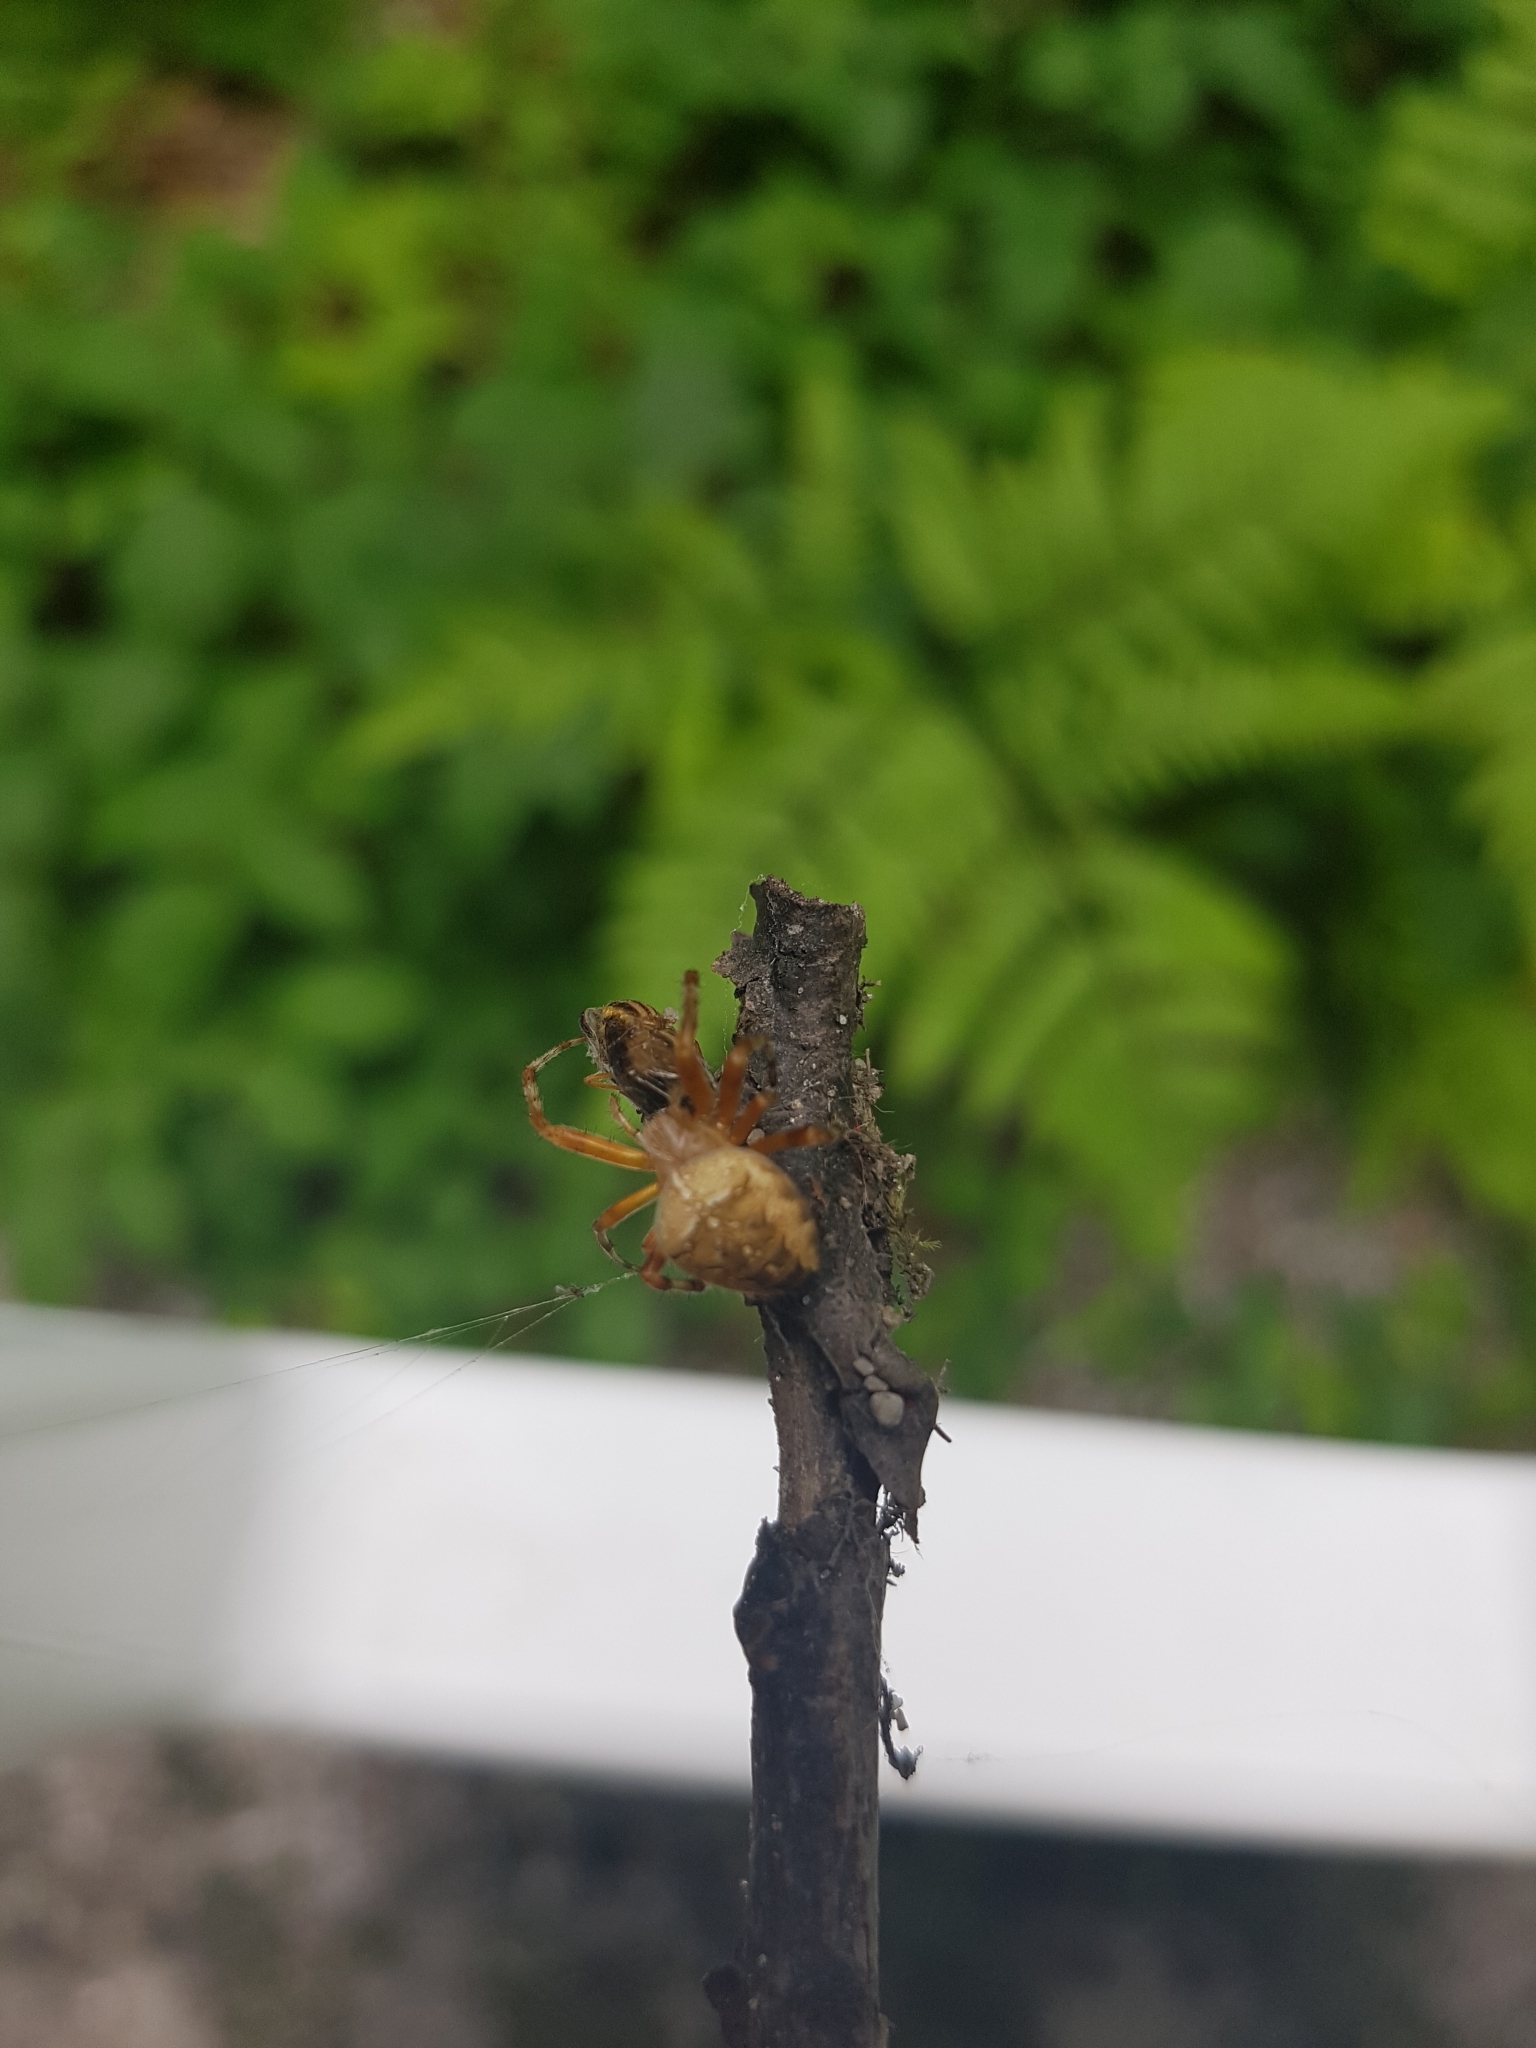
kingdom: Animalia
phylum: Arthropoda
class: Arachnida
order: Araneae
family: Araneidae
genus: Araneus
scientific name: Araneus diadematus
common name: Cross orbweaver
